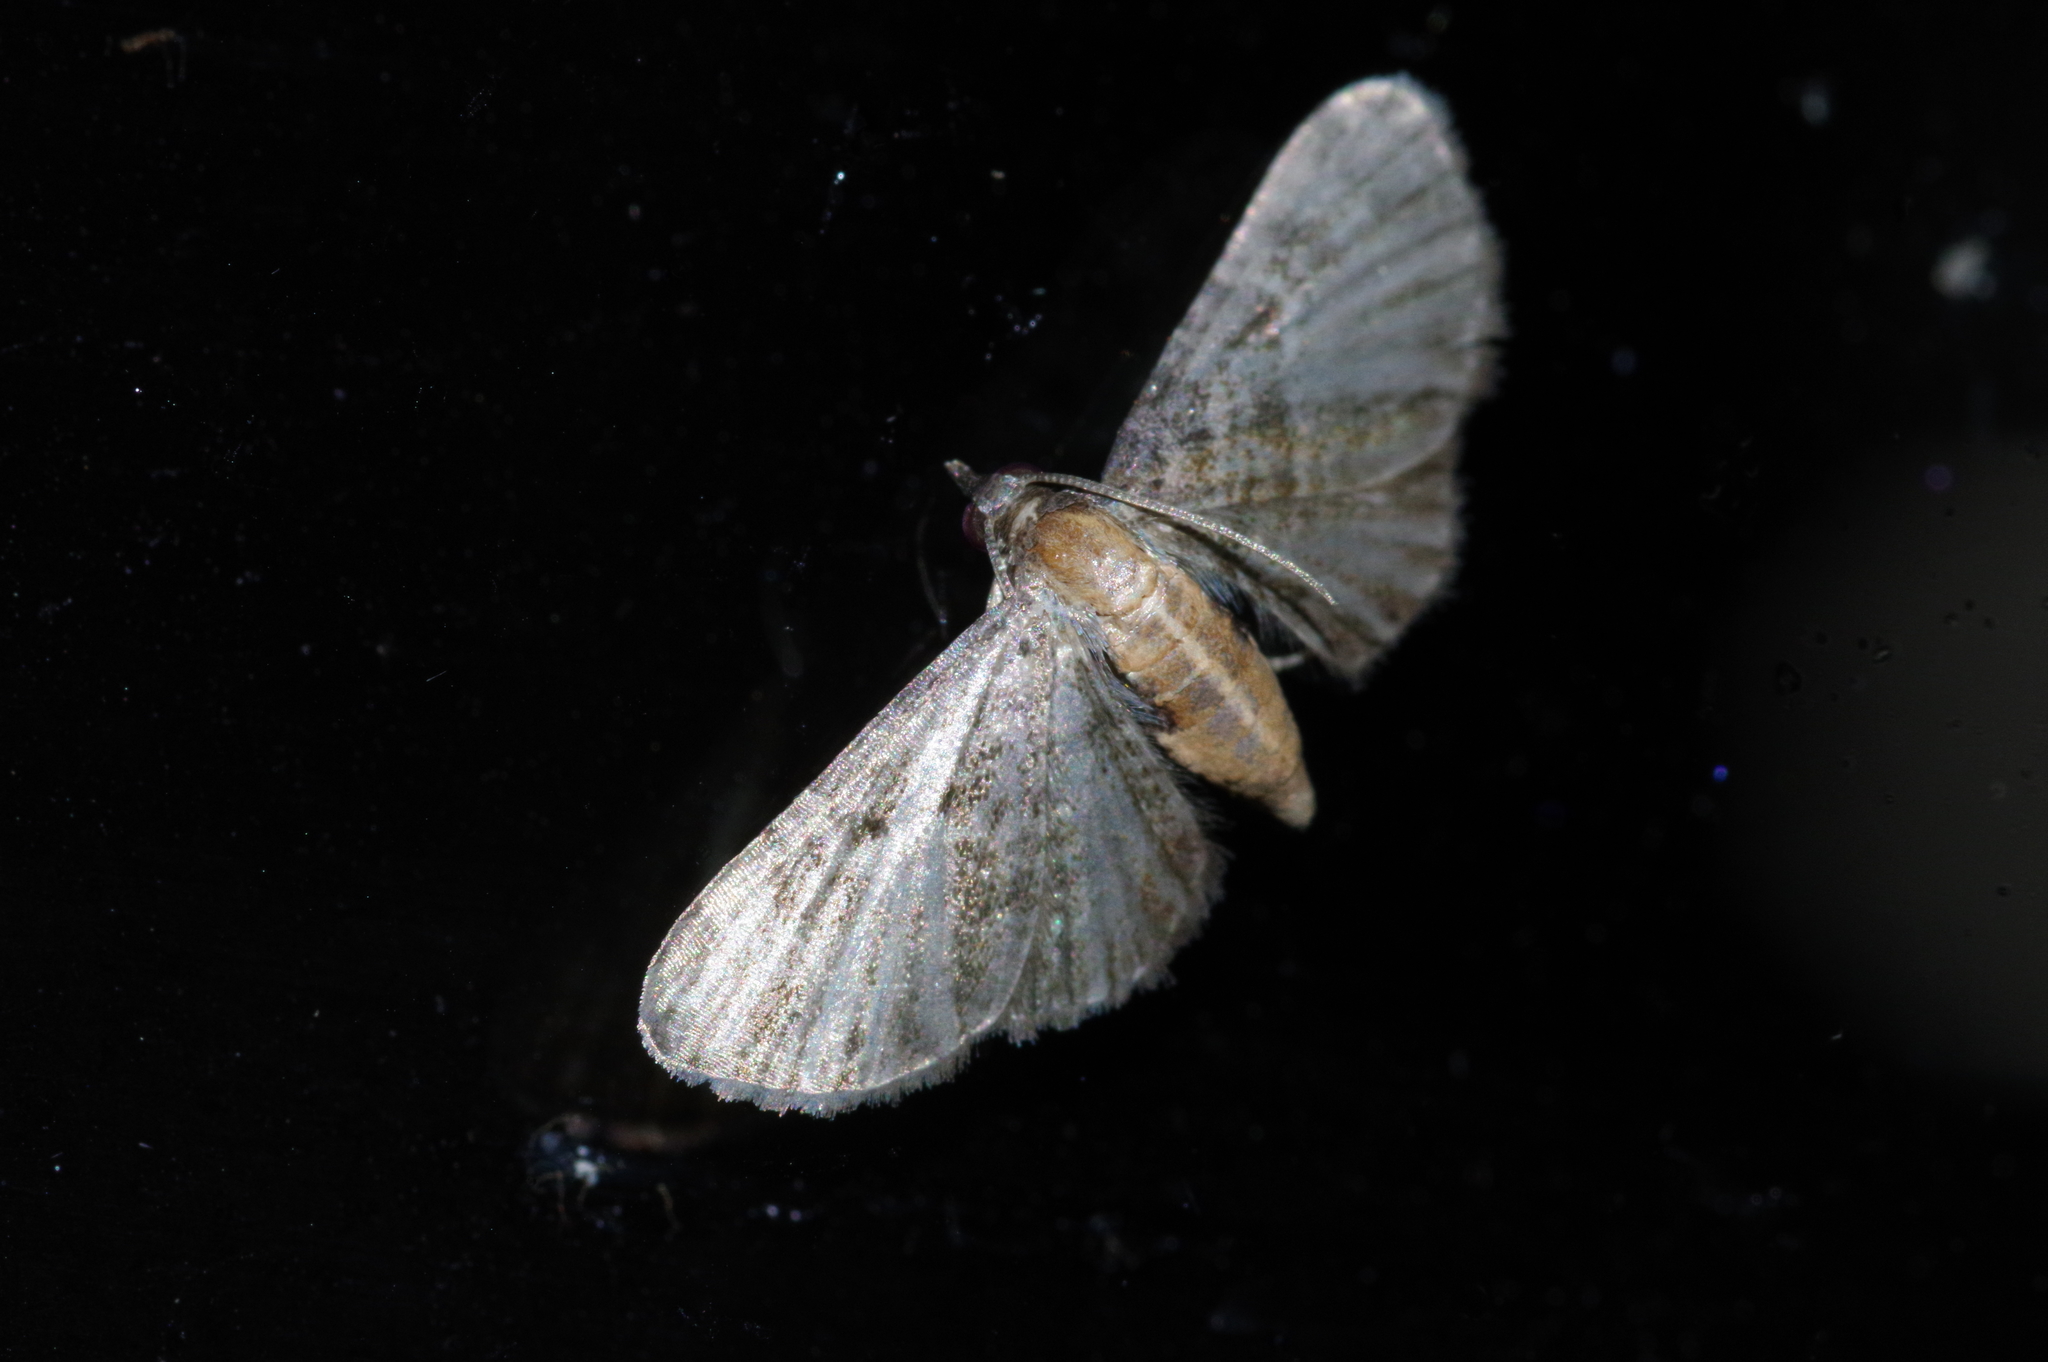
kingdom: Animalia
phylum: Arthropoda
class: Insecta
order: Lepidoptera
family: Geometridae
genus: Eupithecia
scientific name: Eupithecia subtacincta
